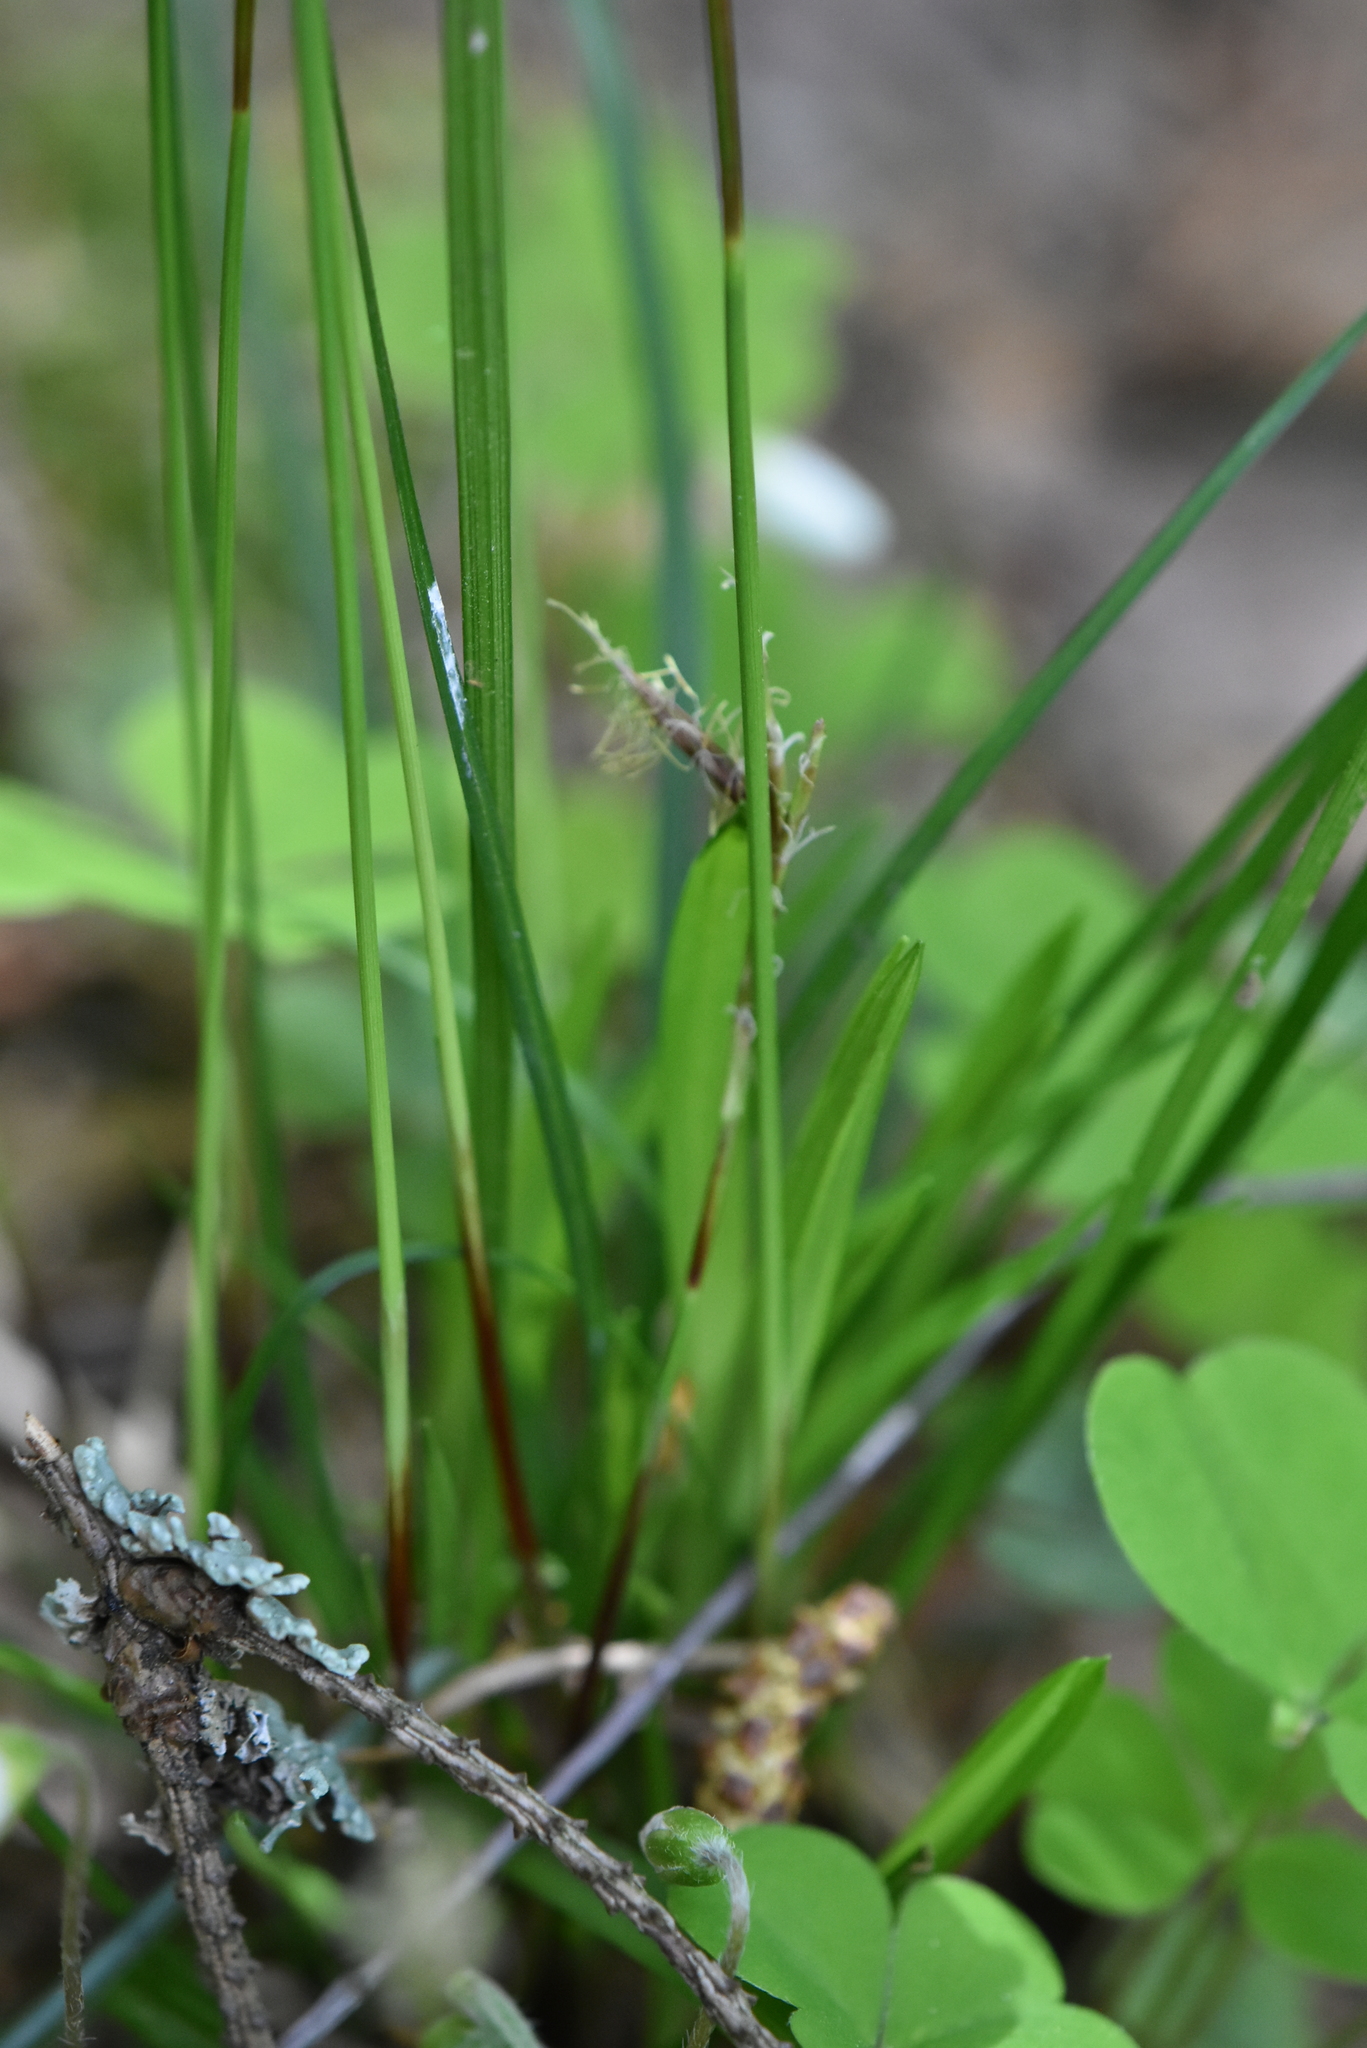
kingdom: Plantae
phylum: Tracheophyta
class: Liliopsida
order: Poales
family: Cyperaceae
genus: Carex
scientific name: Carex digitata
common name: Fingered sedge
